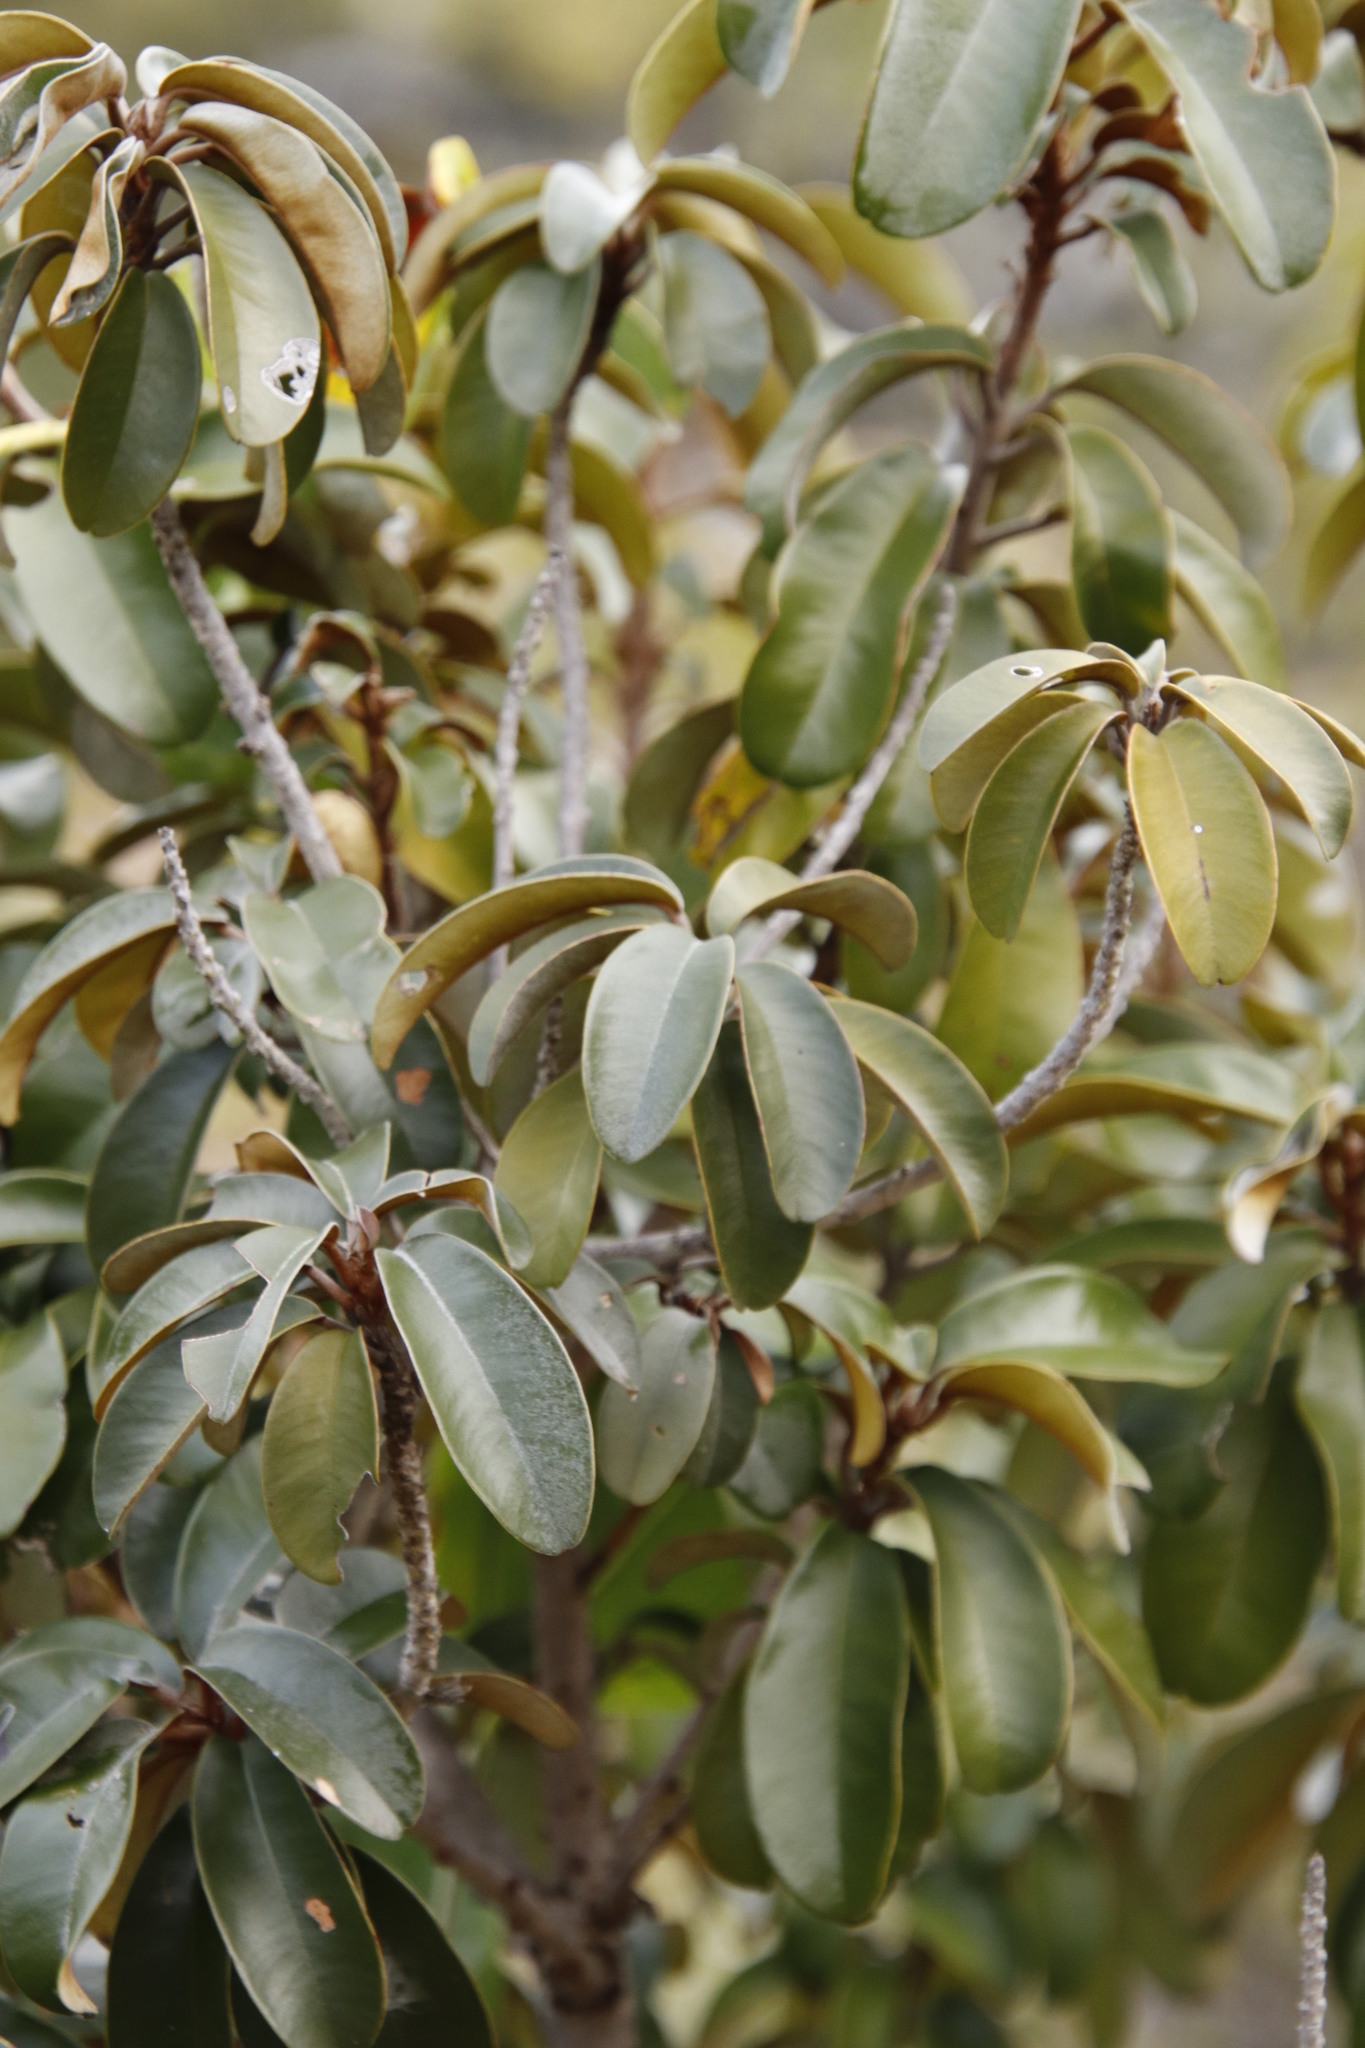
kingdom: Plantae
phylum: Tracheophyta
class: Magnoliopsida
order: Ericales
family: Sapotaceae
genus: Englerophytum
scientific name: Englerophytum magalismontanum
